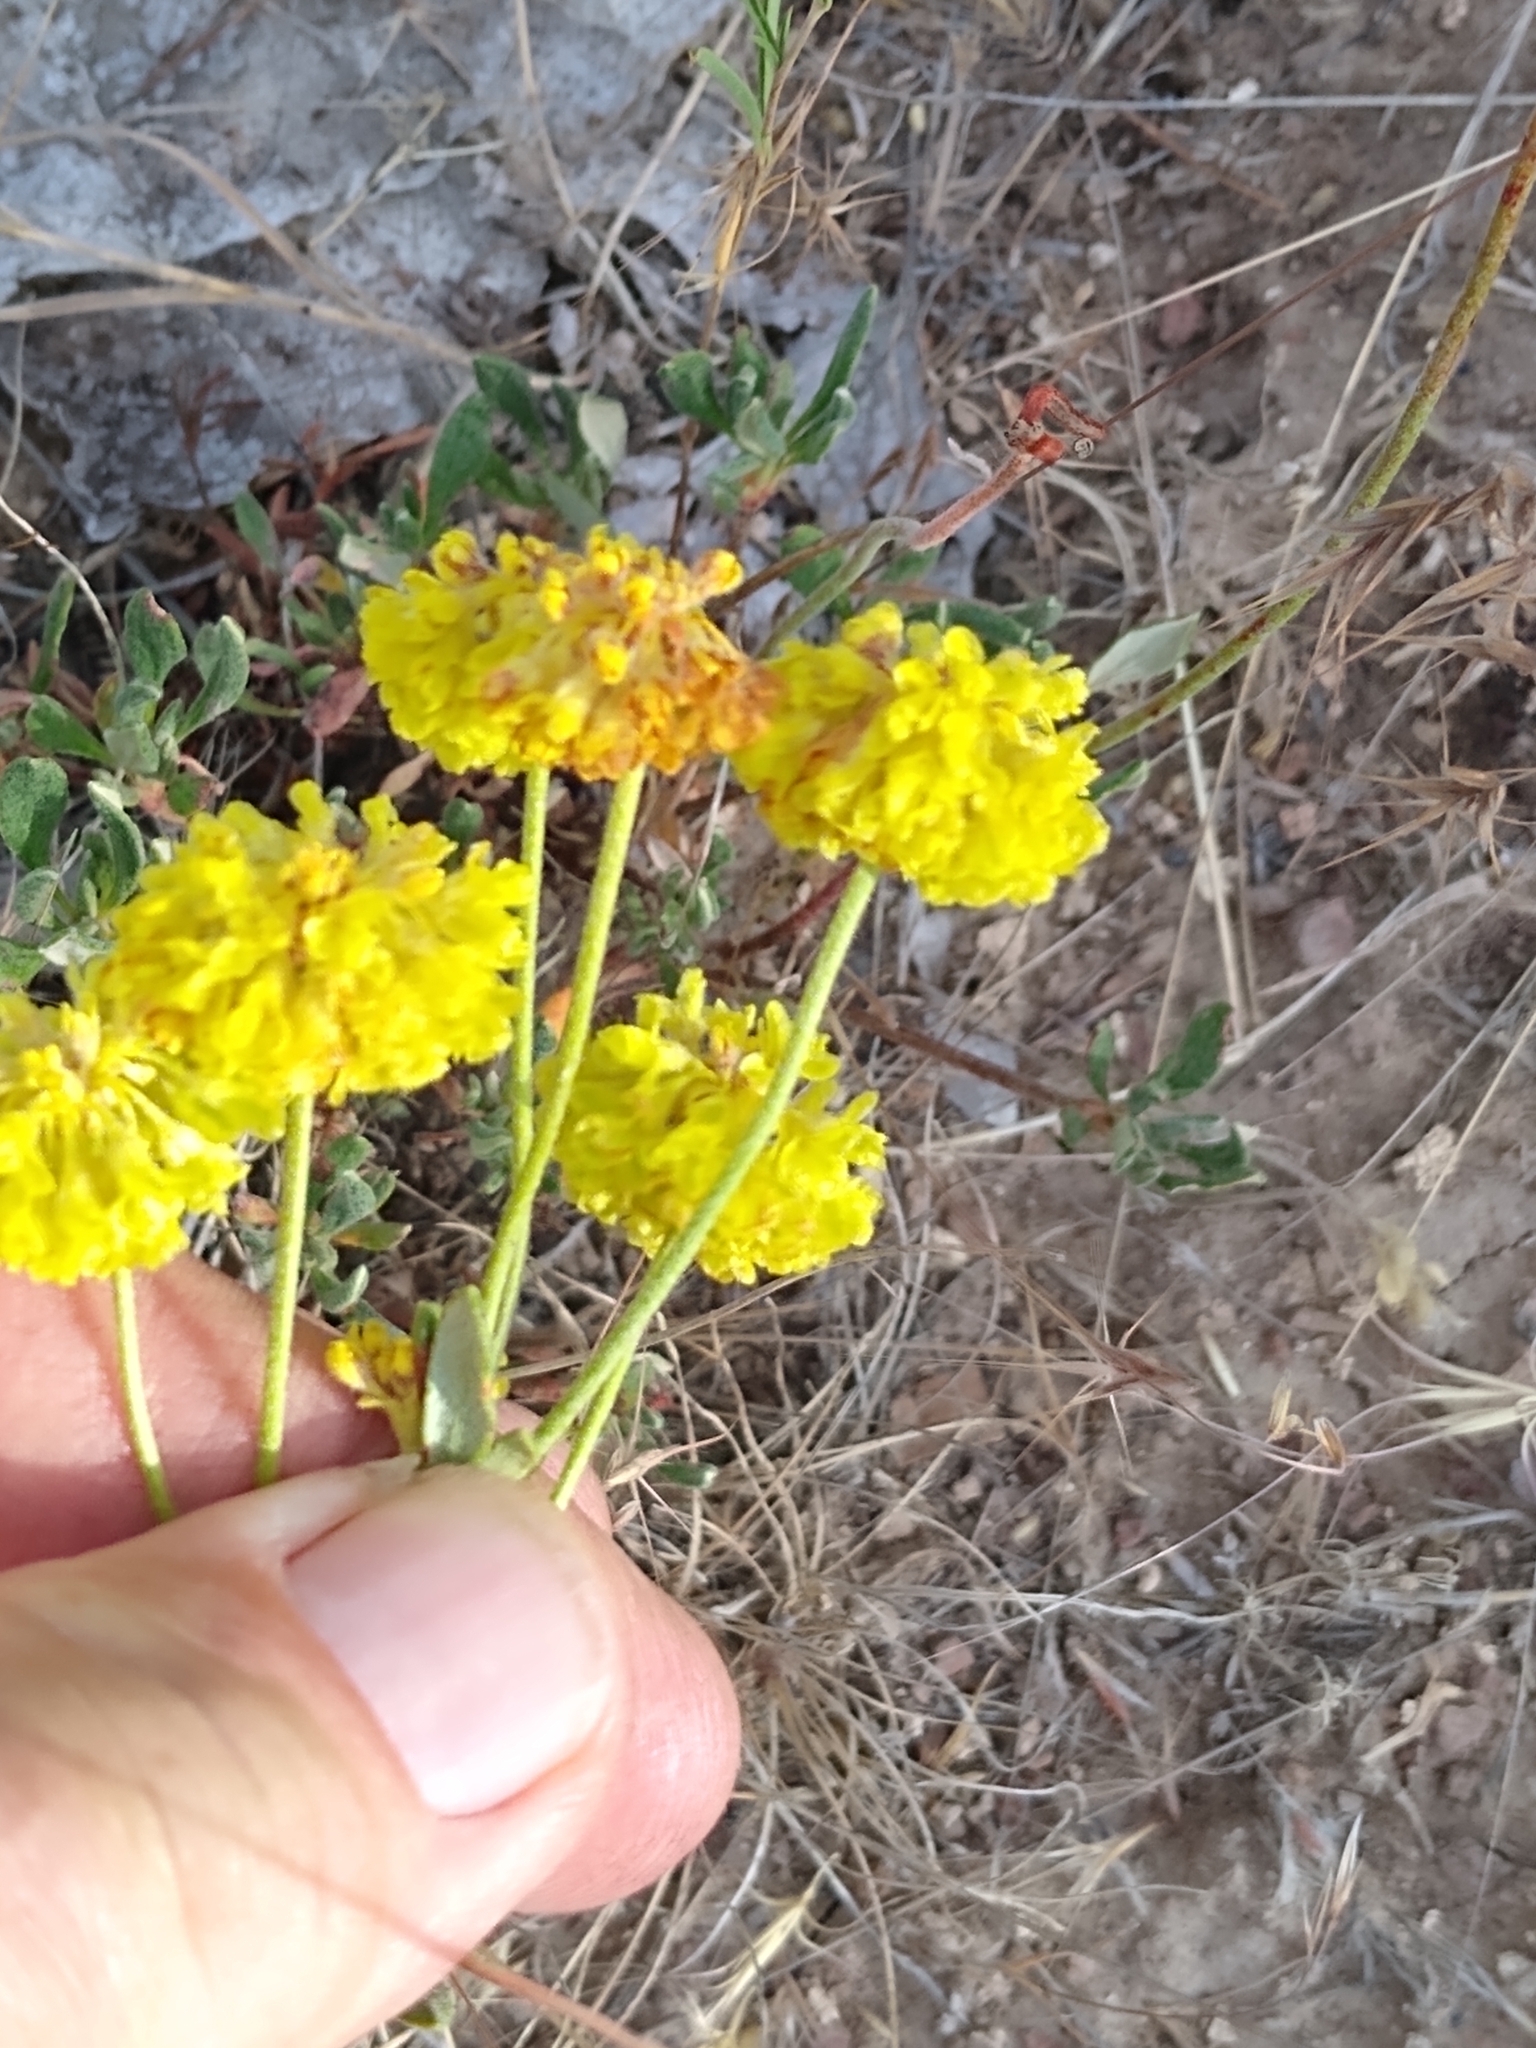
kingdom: Plantae
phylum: Tracheophyta
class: Magnoliopsida
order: Caryophyllales
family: Polygonaceae
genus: Eriogonum
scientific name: Eriogonum sphaerocephalum
